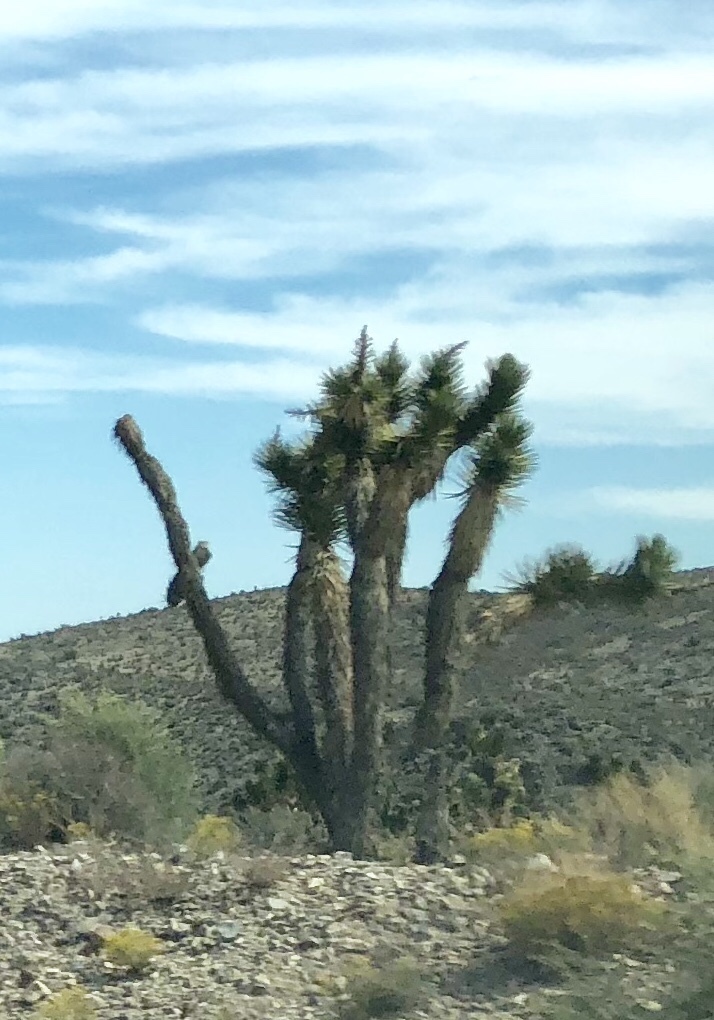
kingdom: Plantae
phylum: Tracheophyta
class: Liliopsida
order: Asparagales
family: Asparagaceae
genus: Yucca
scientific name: Yucca brevifolia
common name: Joshua tree
